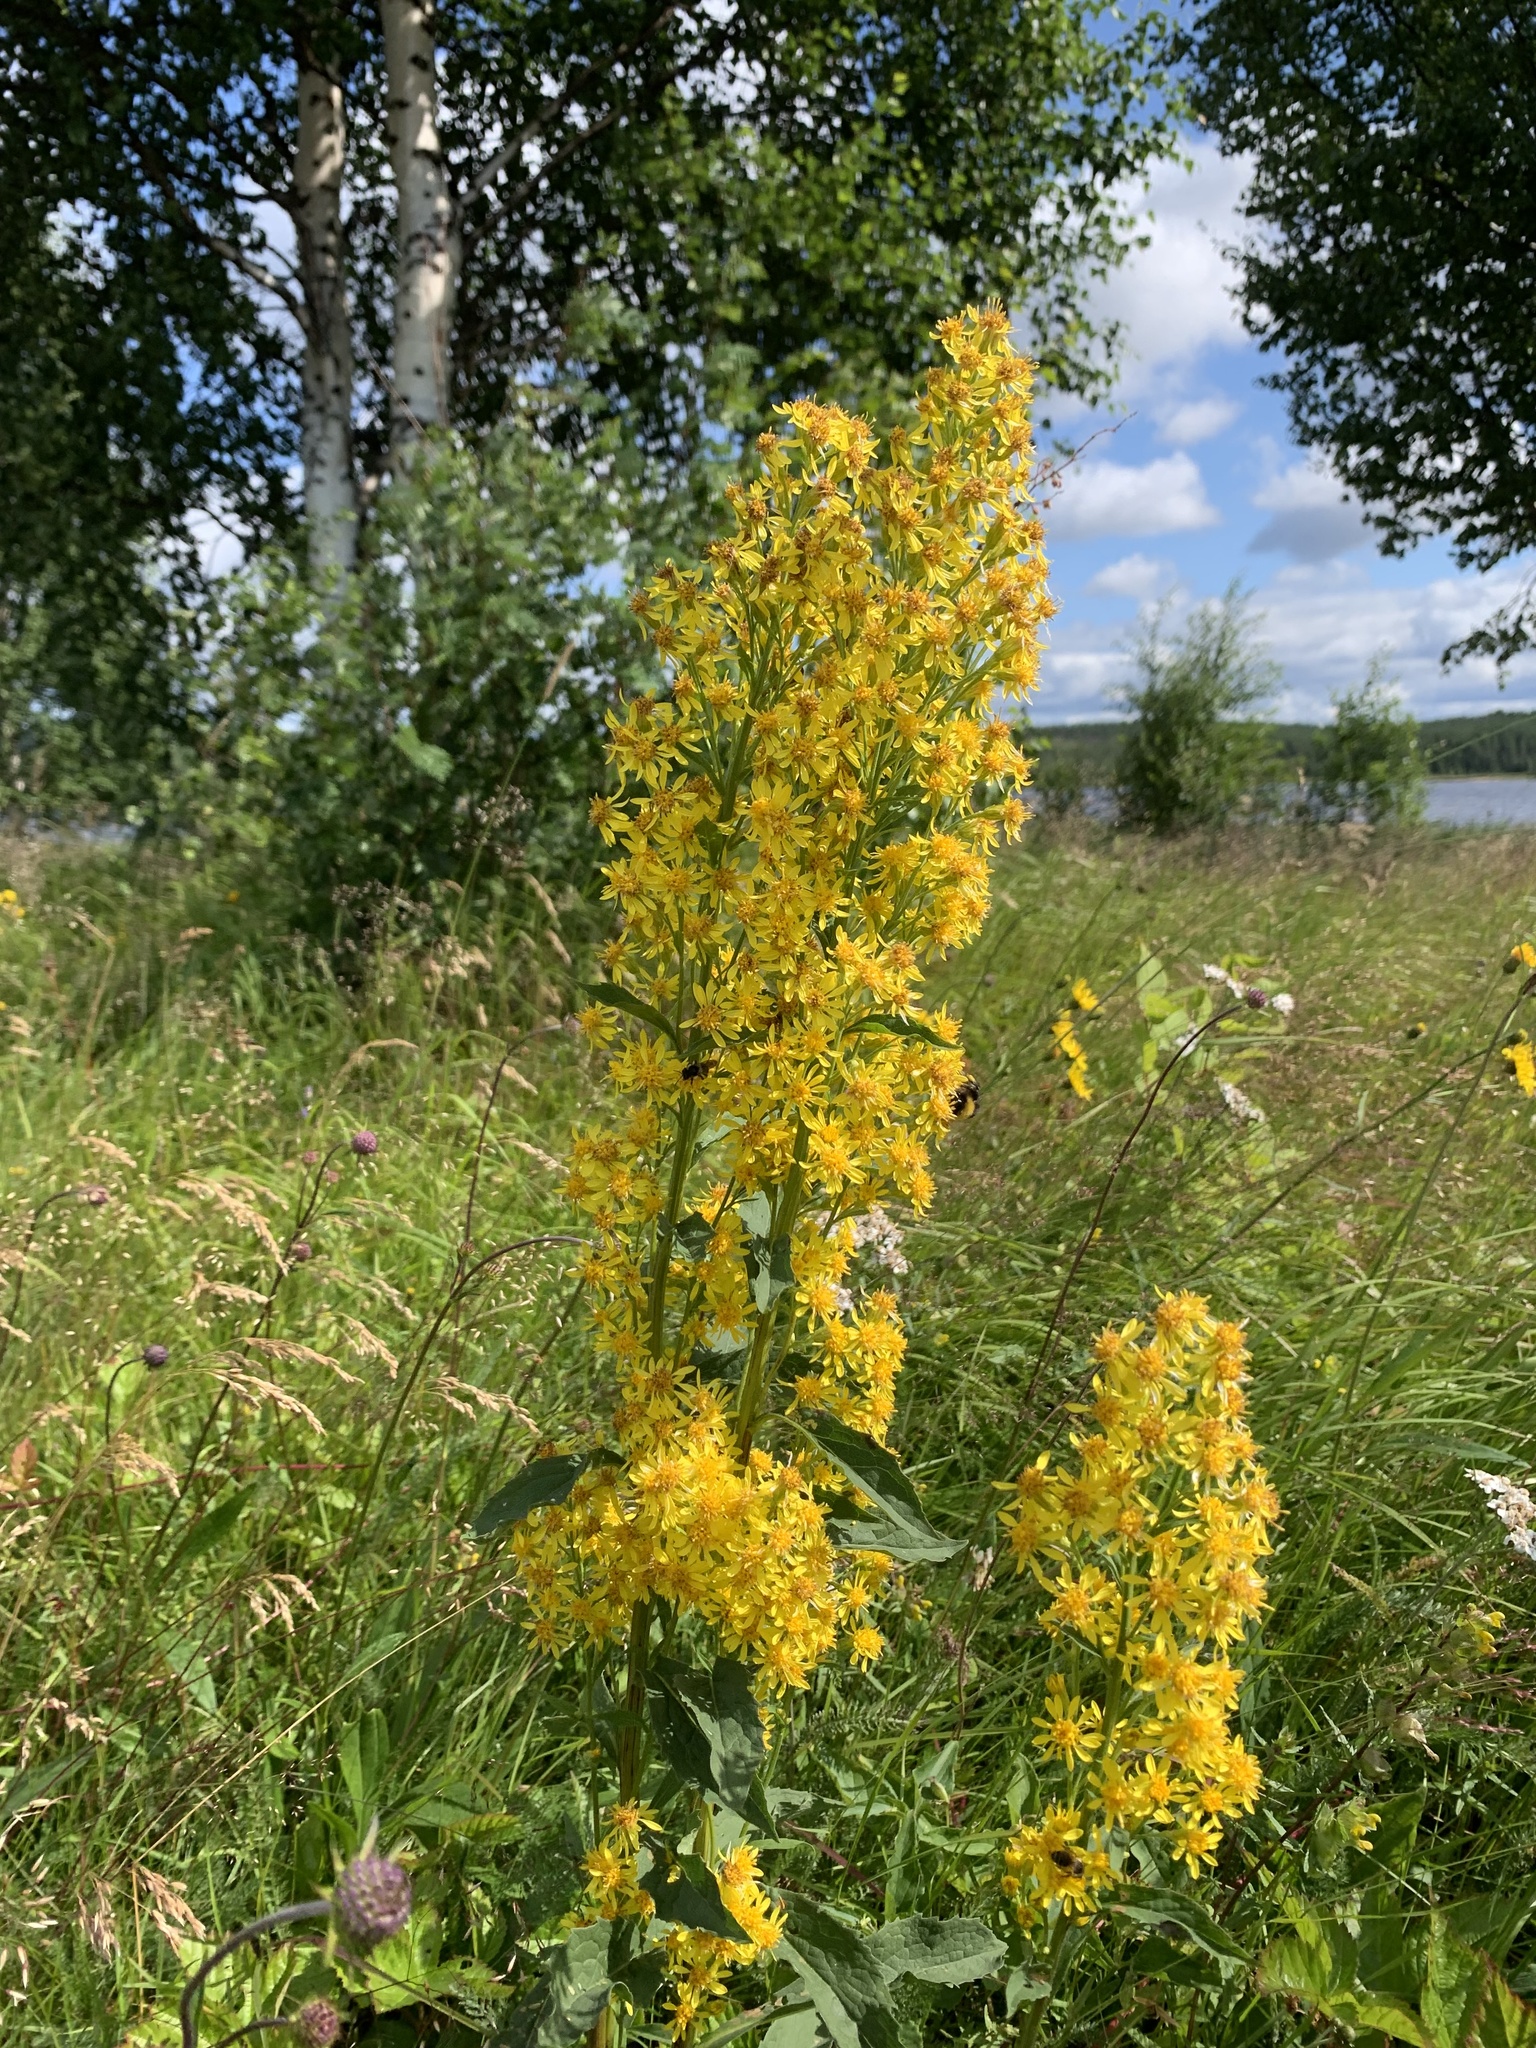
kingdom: Plantae
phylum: Tracheophyta
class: Magnoliopsida
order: Asterales
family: Asteraceae
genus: Solidago
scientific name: Solidago virgaurea
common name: Goldenrod
